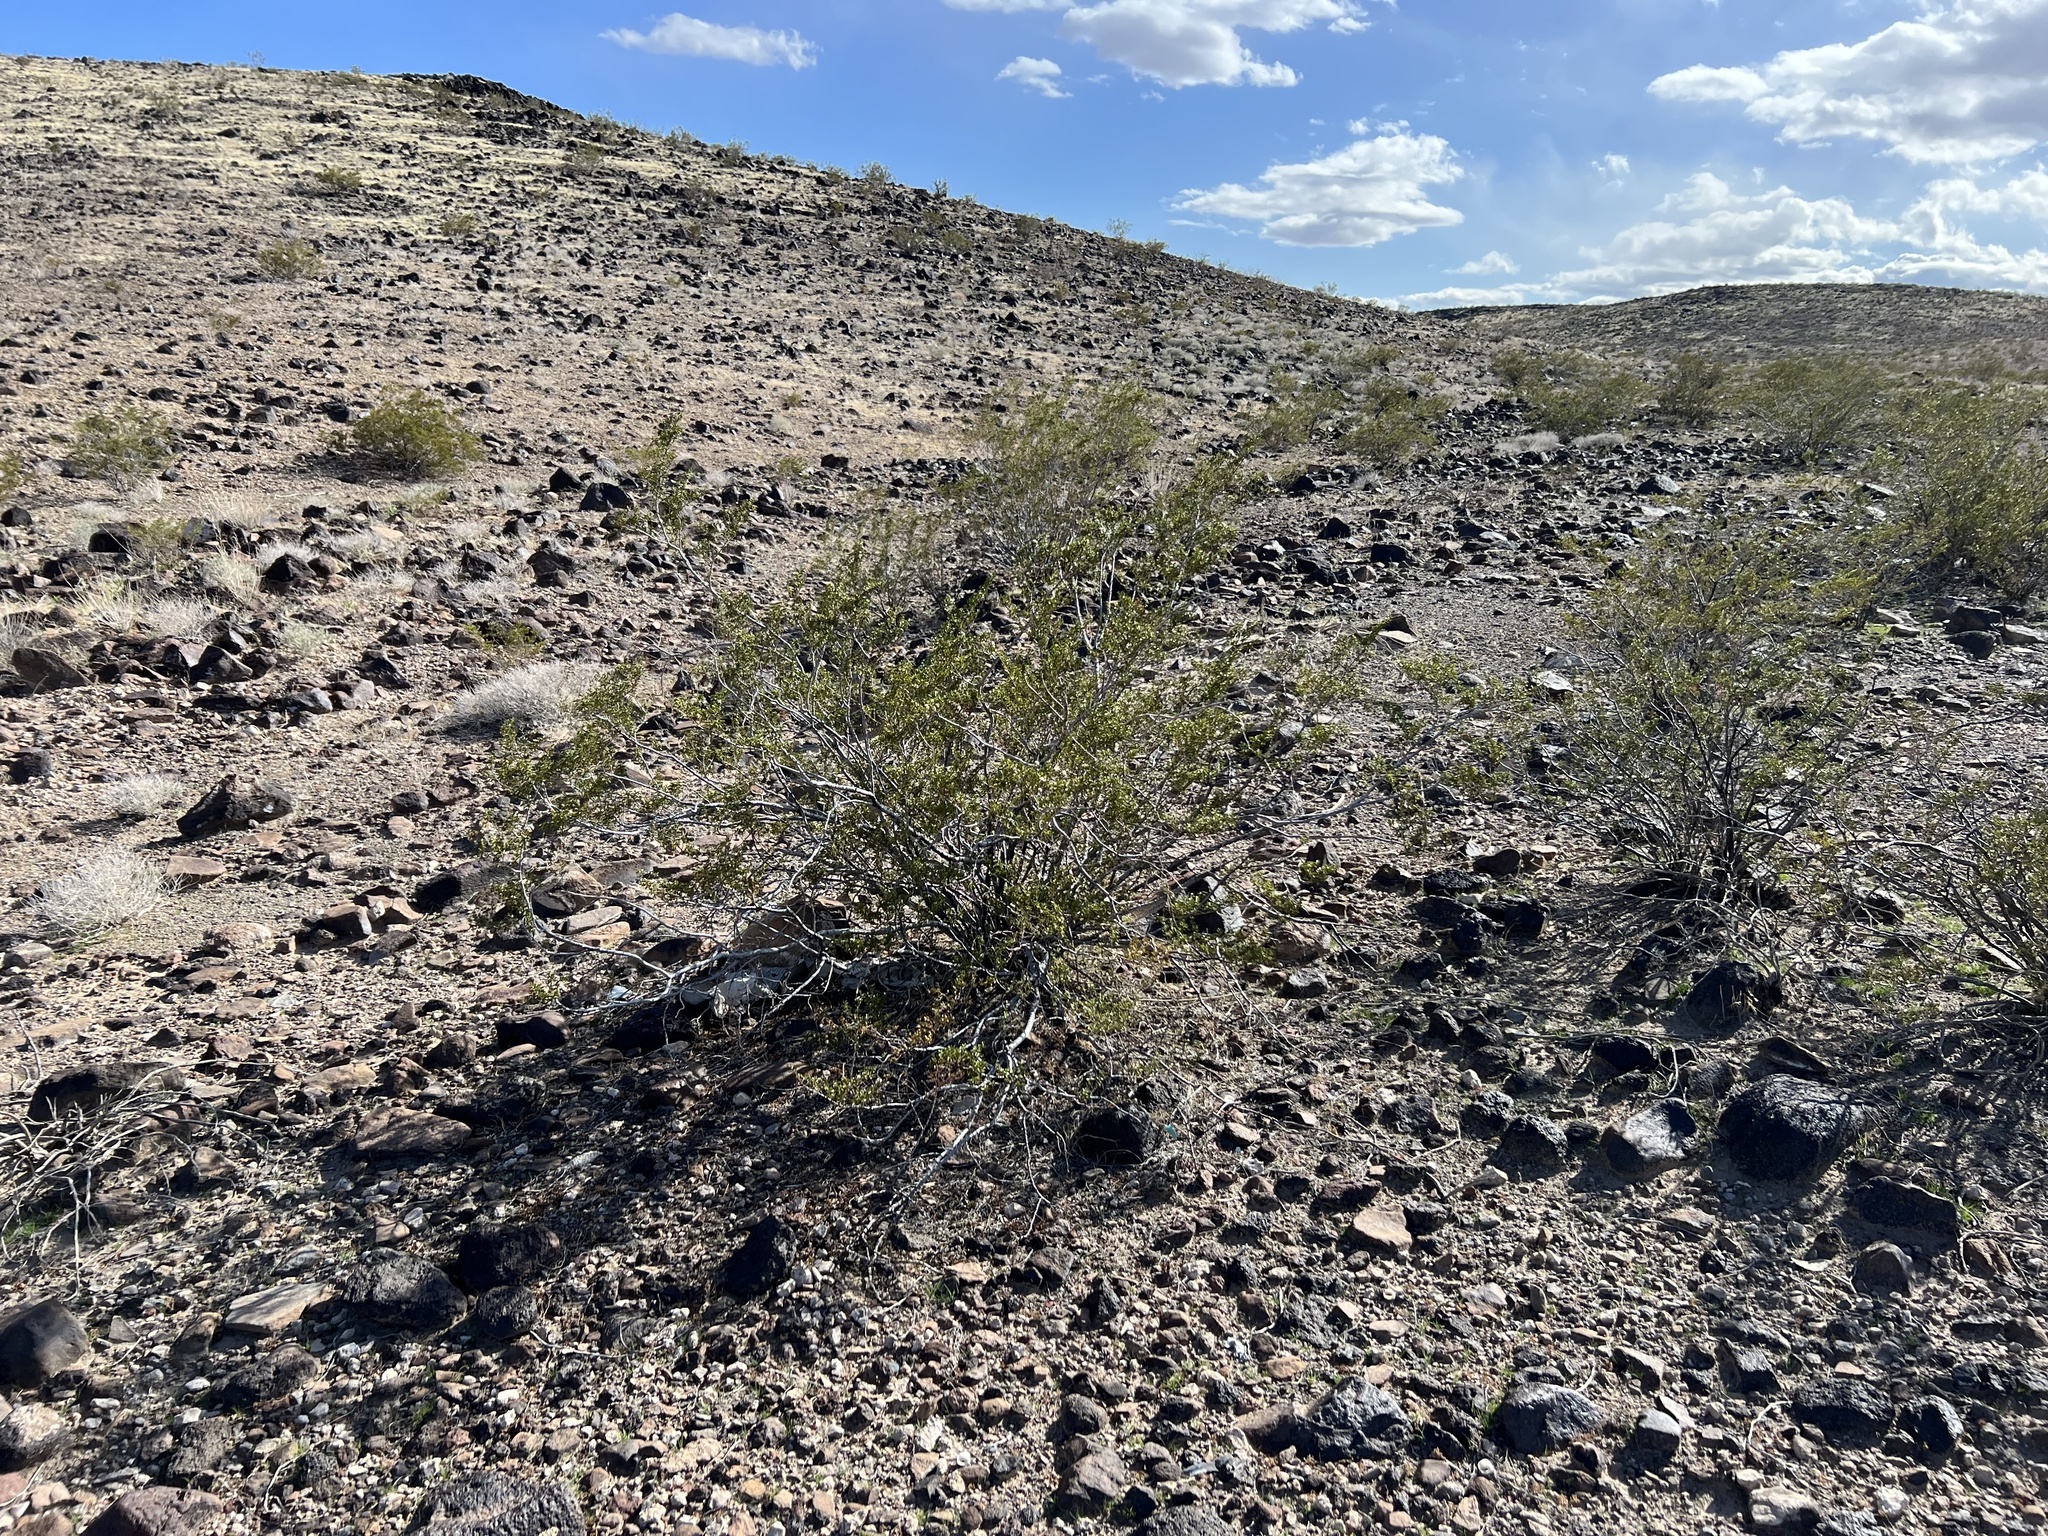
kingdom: Plantae
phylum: Tracheophyta
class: Magnoliopsida
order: Zygophyllales
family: Zygophyllaceae
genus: Larrea
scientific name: Larrea tridentata
